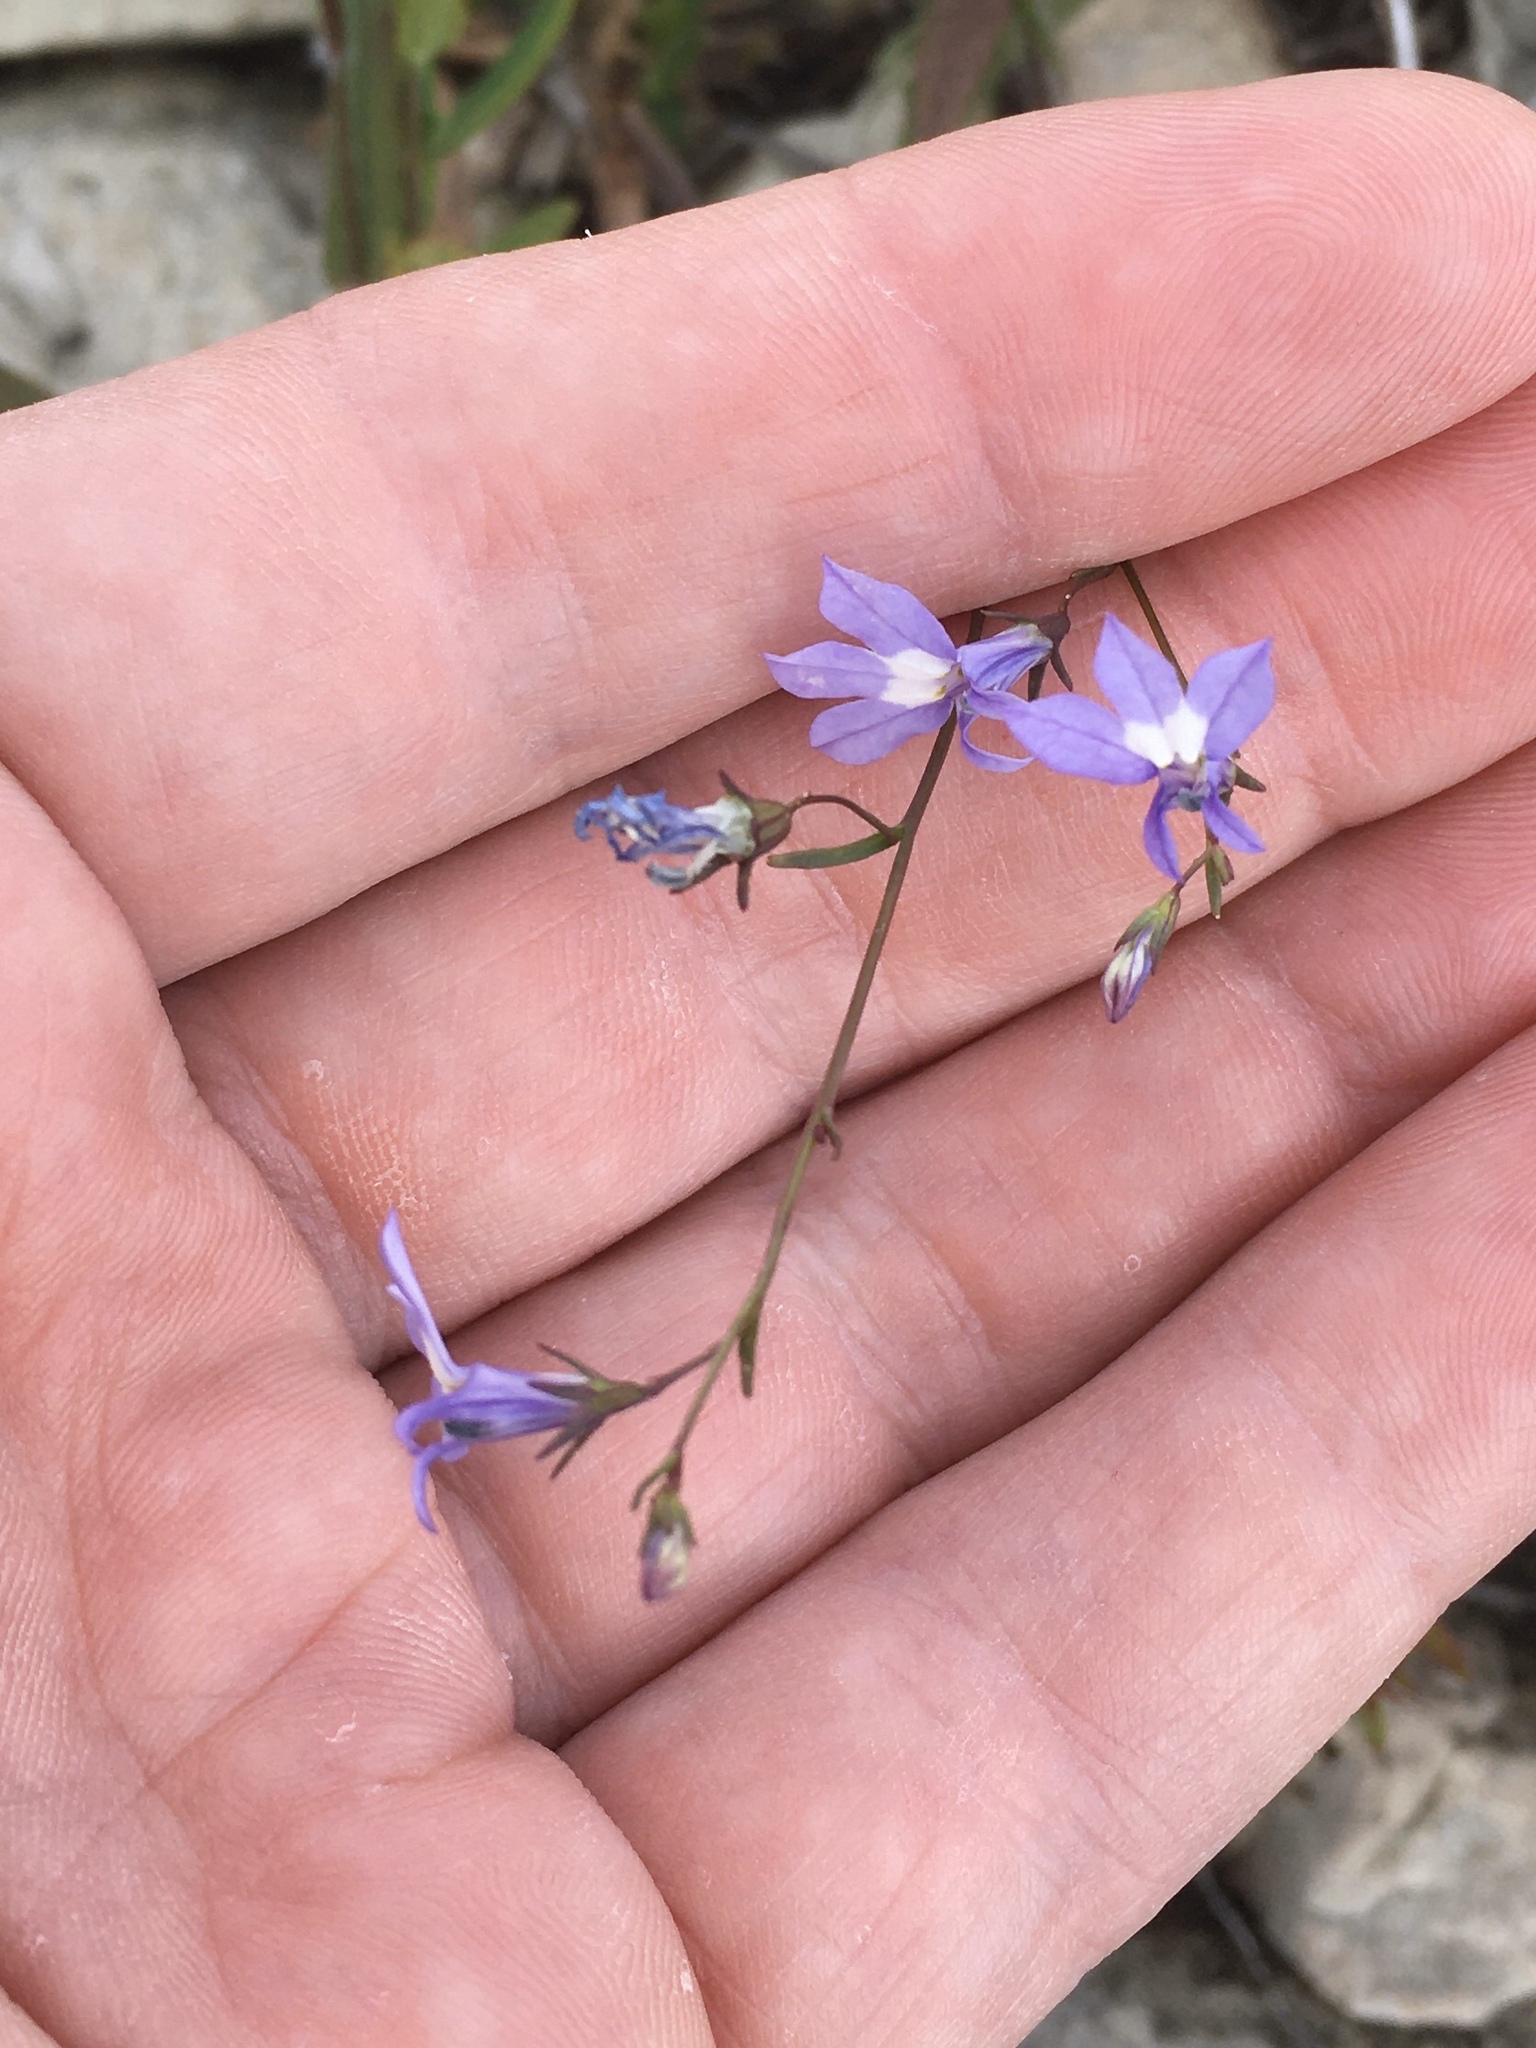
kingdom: Plantae
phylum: Tracheophyta
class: Magnoliopsida
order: Asterales
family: Campanulaceae
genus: Lobelia
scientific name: Lobelia kalmii
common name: Kalm's lobelia
